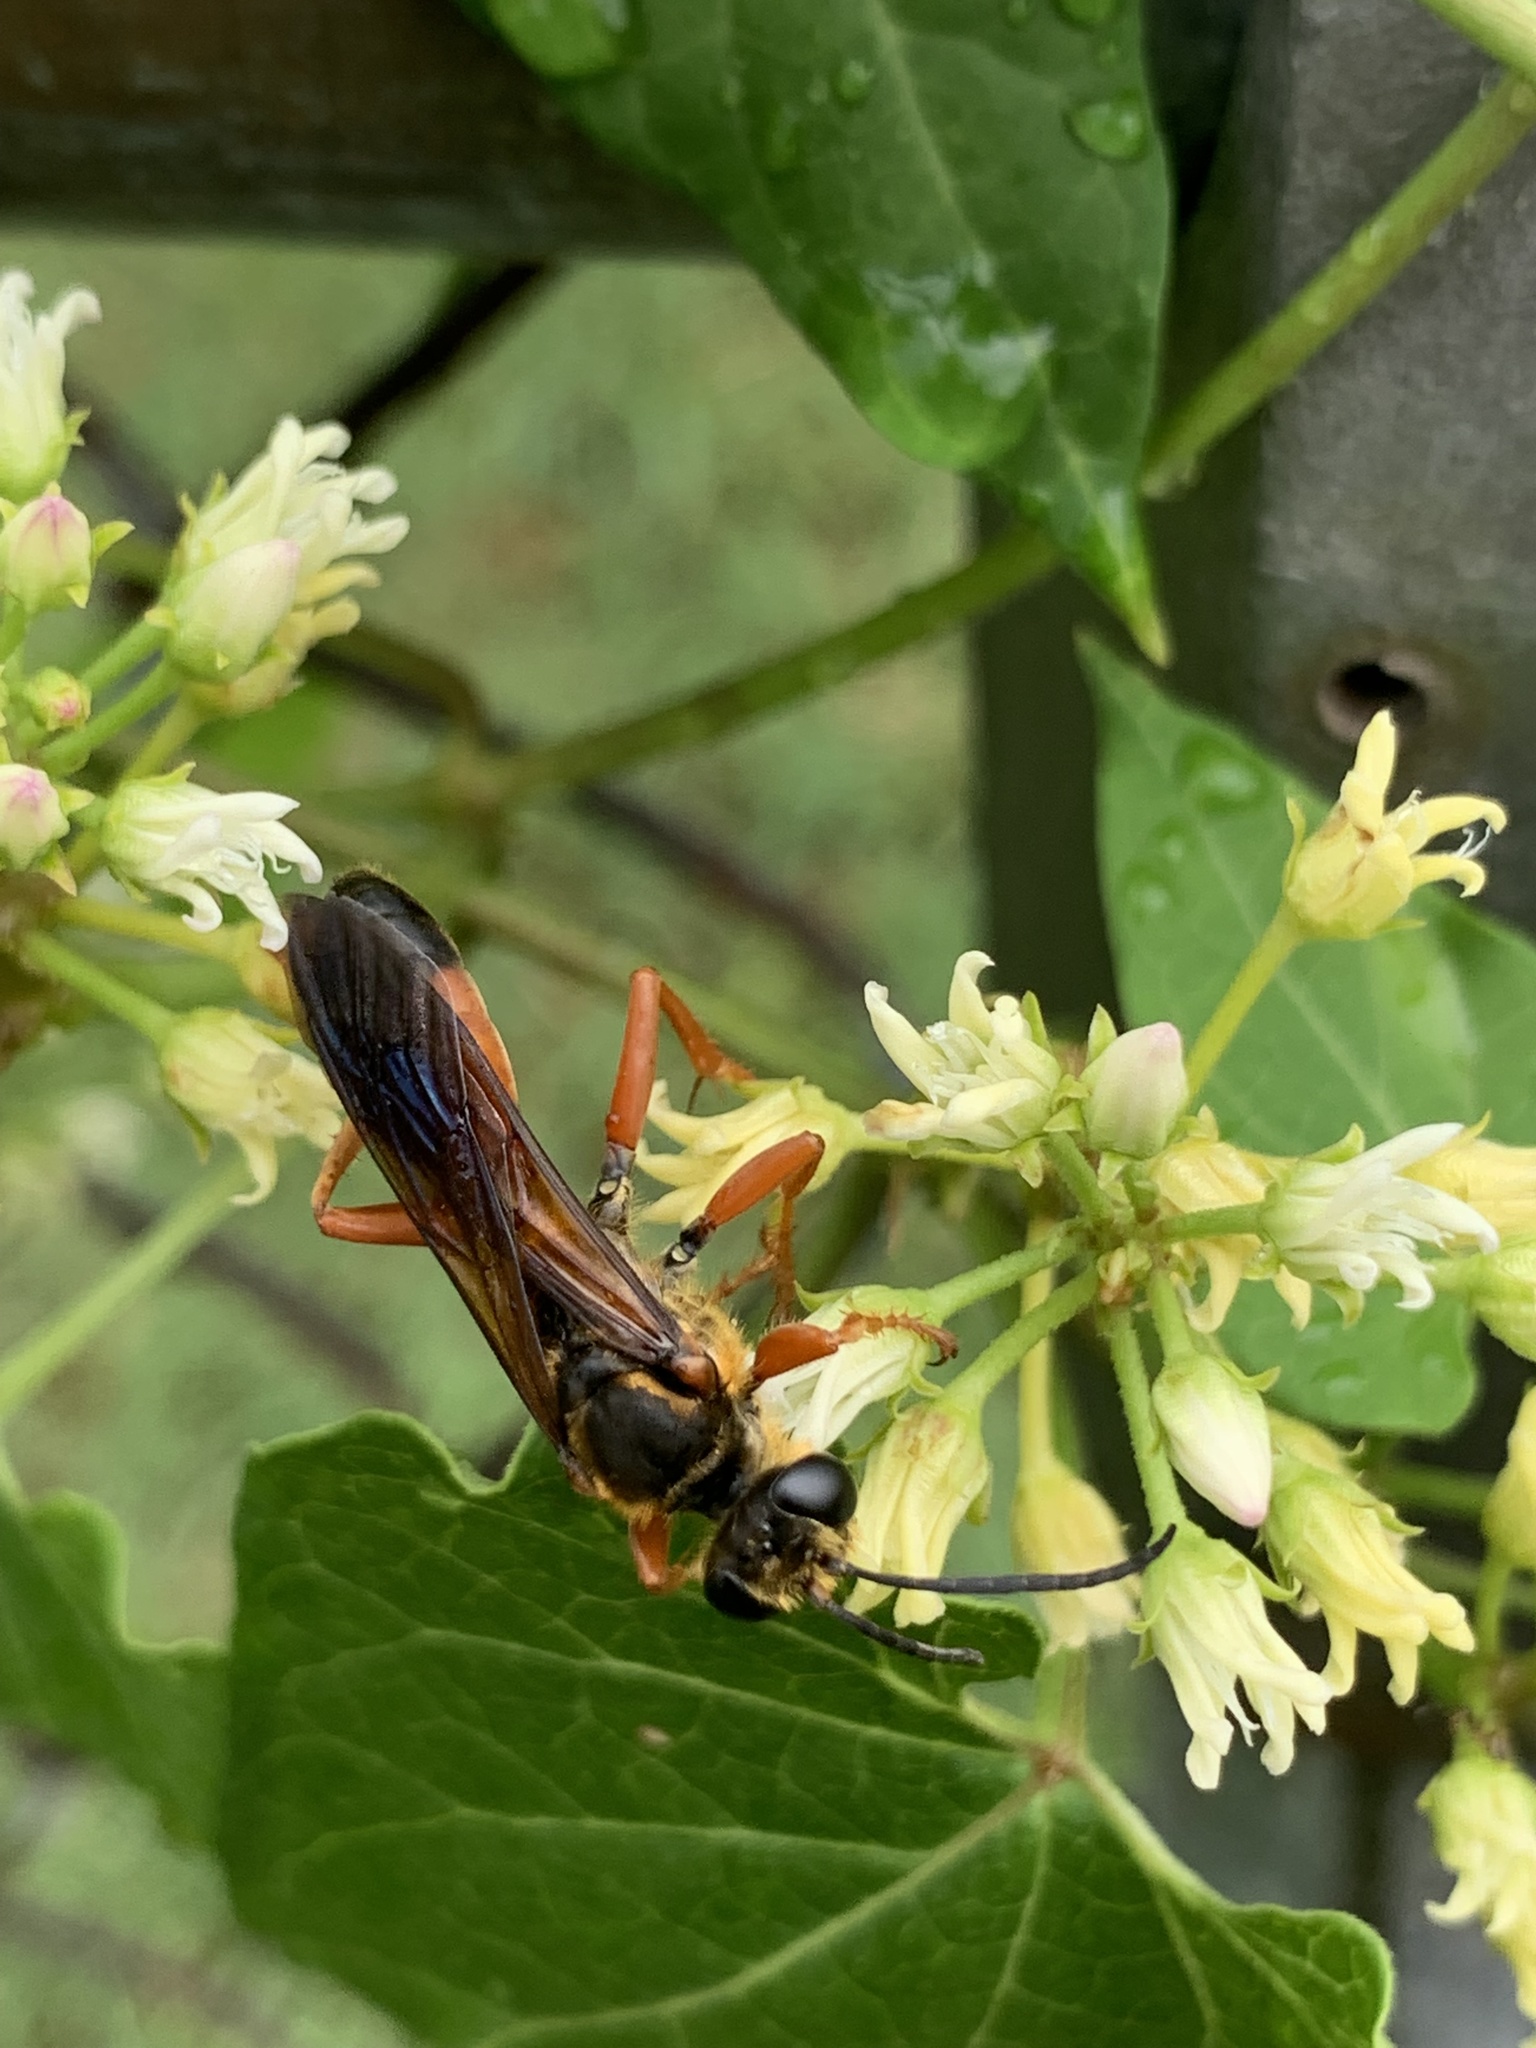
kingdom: Animalia
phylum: Arthropoda
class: Insecta
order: Hymenoptera
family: Sphecidae
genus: Sphex
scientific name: Sphex ichneumoneus
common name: Great golden digger wasp
